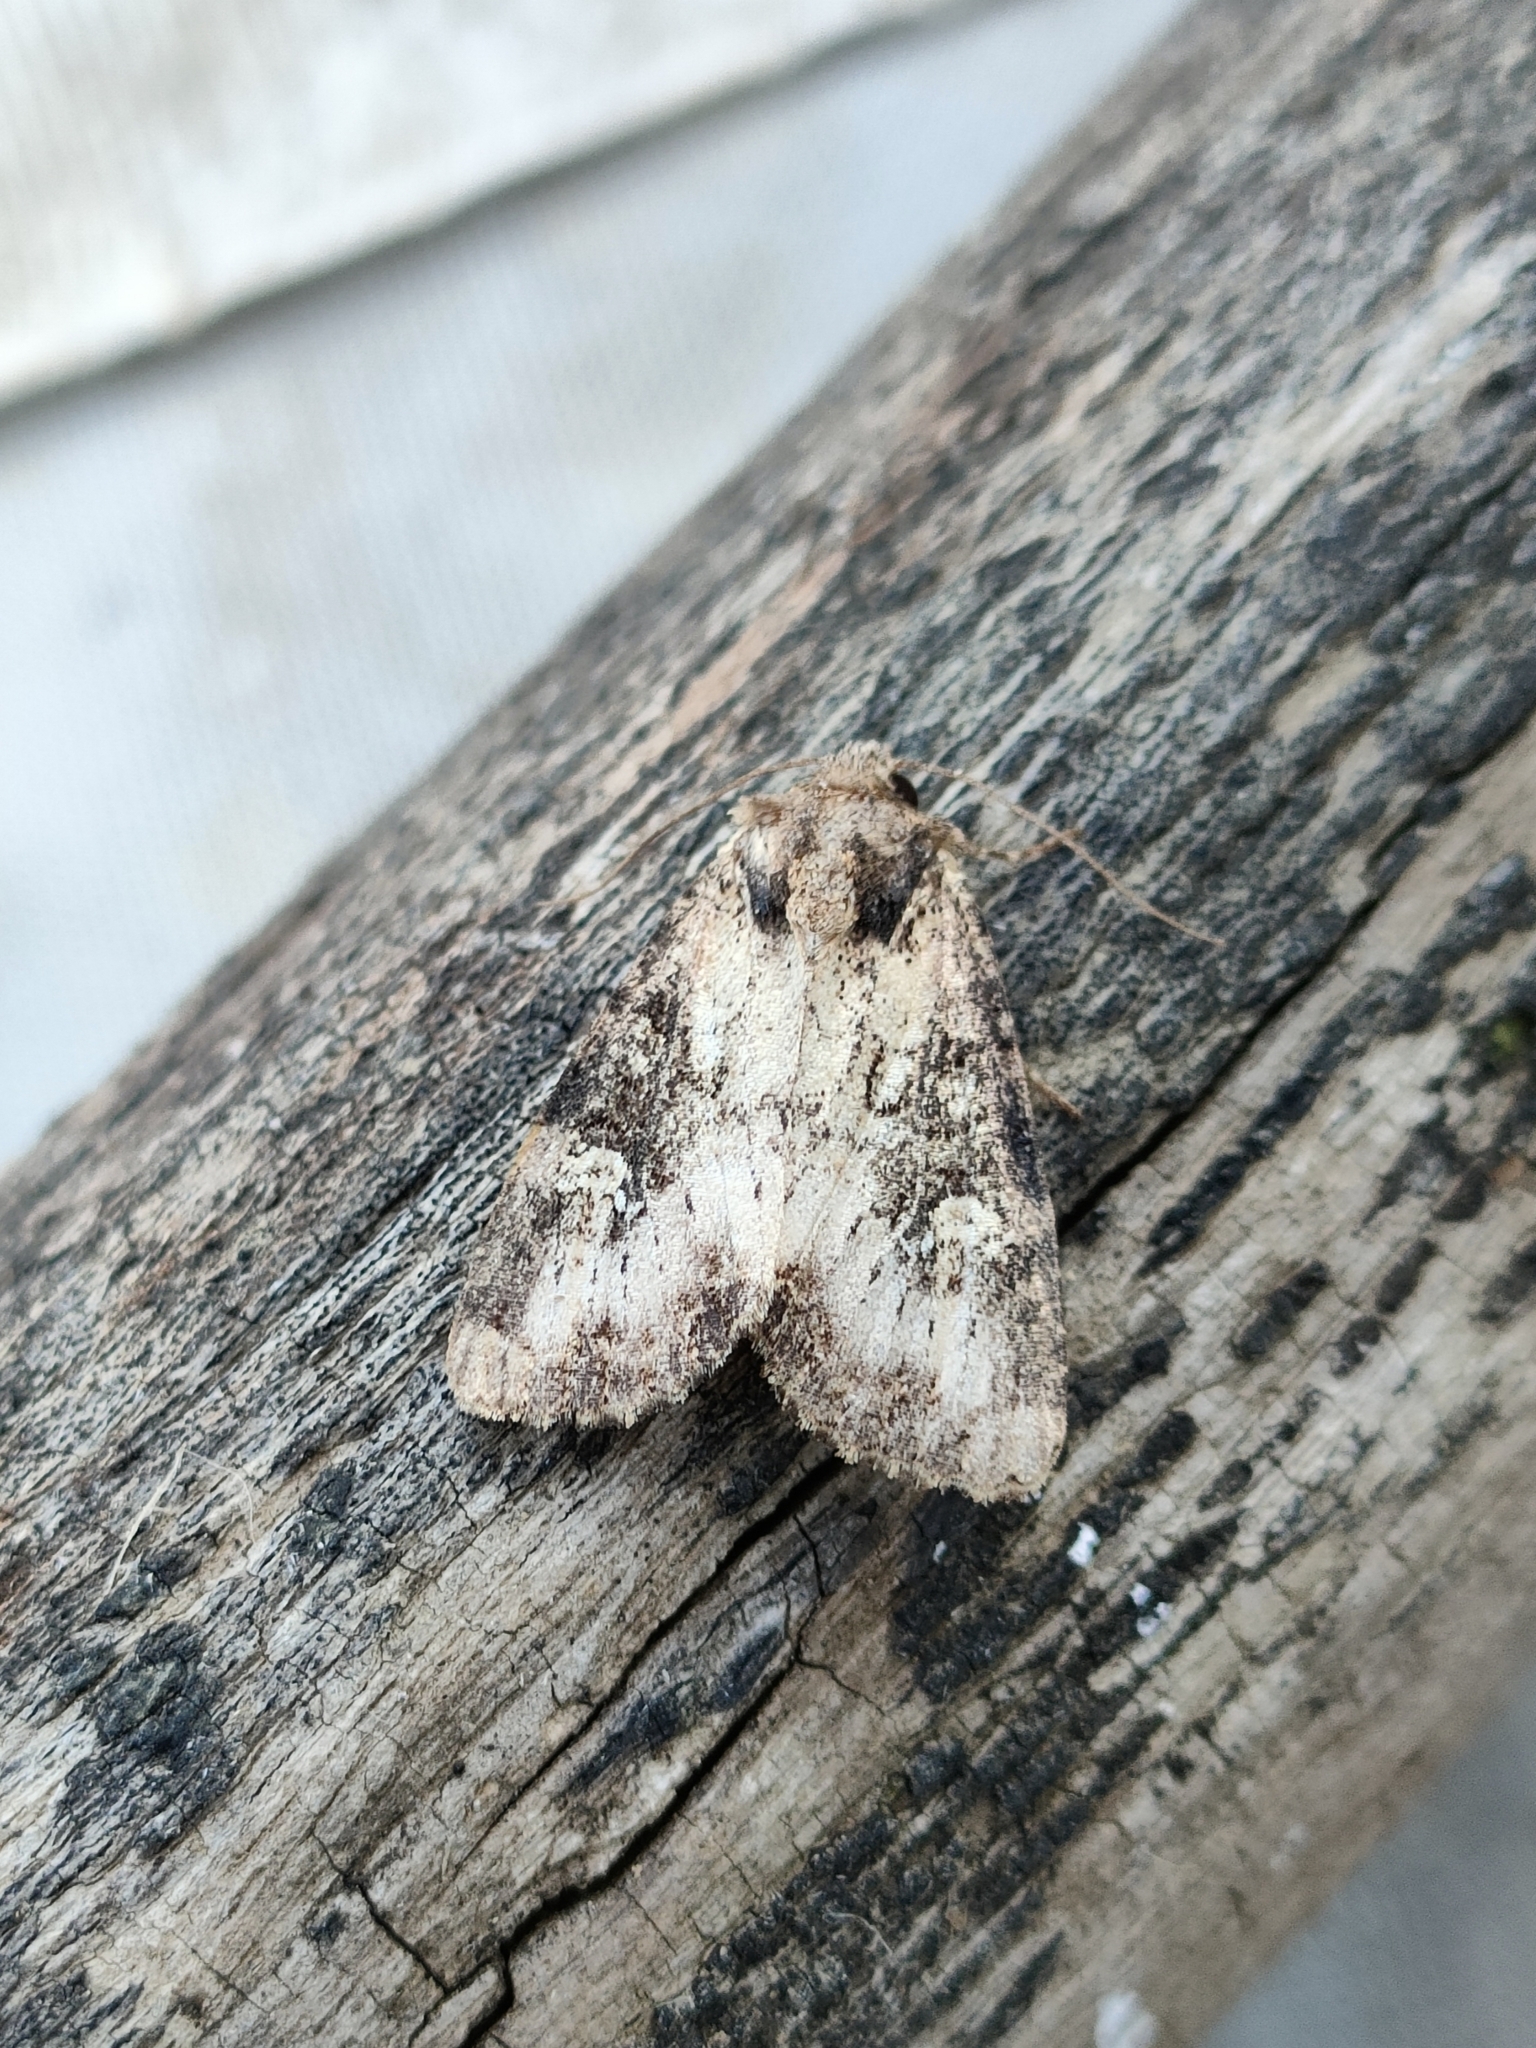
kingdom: Animalia
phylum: Arthropoda
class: Insecta
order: Lepidoptera
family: Noctuidae
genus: Mesapamea
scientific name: Mesapamea
